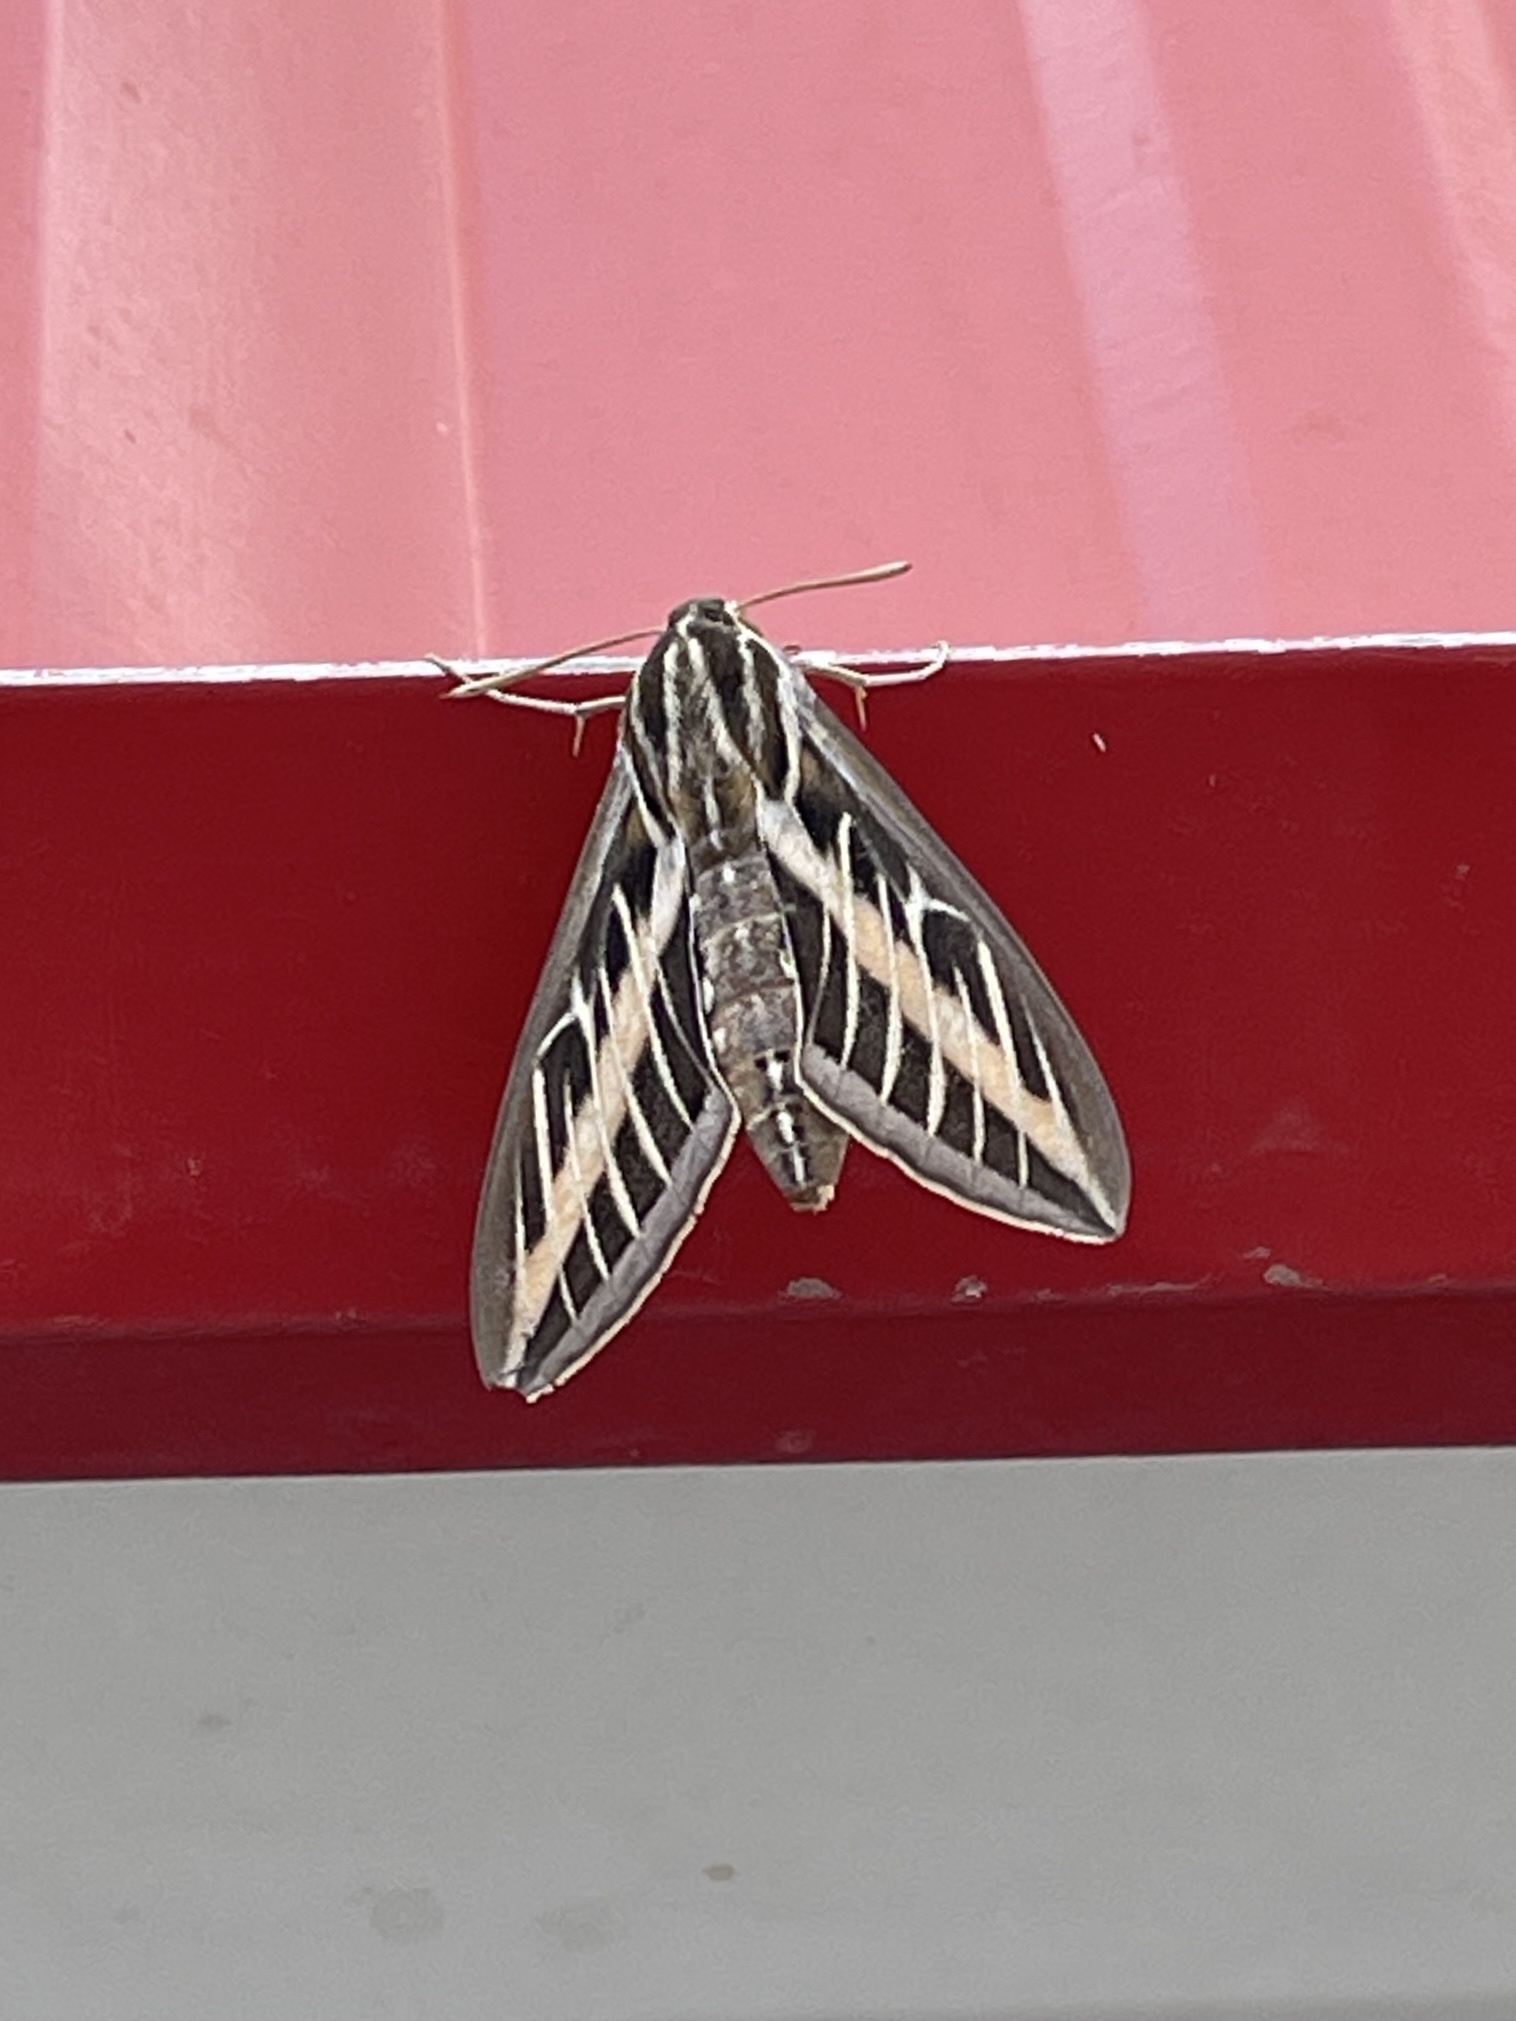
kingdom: Animalia
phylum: Arthropoda
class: Insecta
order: Lepidoptera
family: Sphingidae
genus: Hyles
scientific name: Hyles lineata
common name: White-lined sphinx
